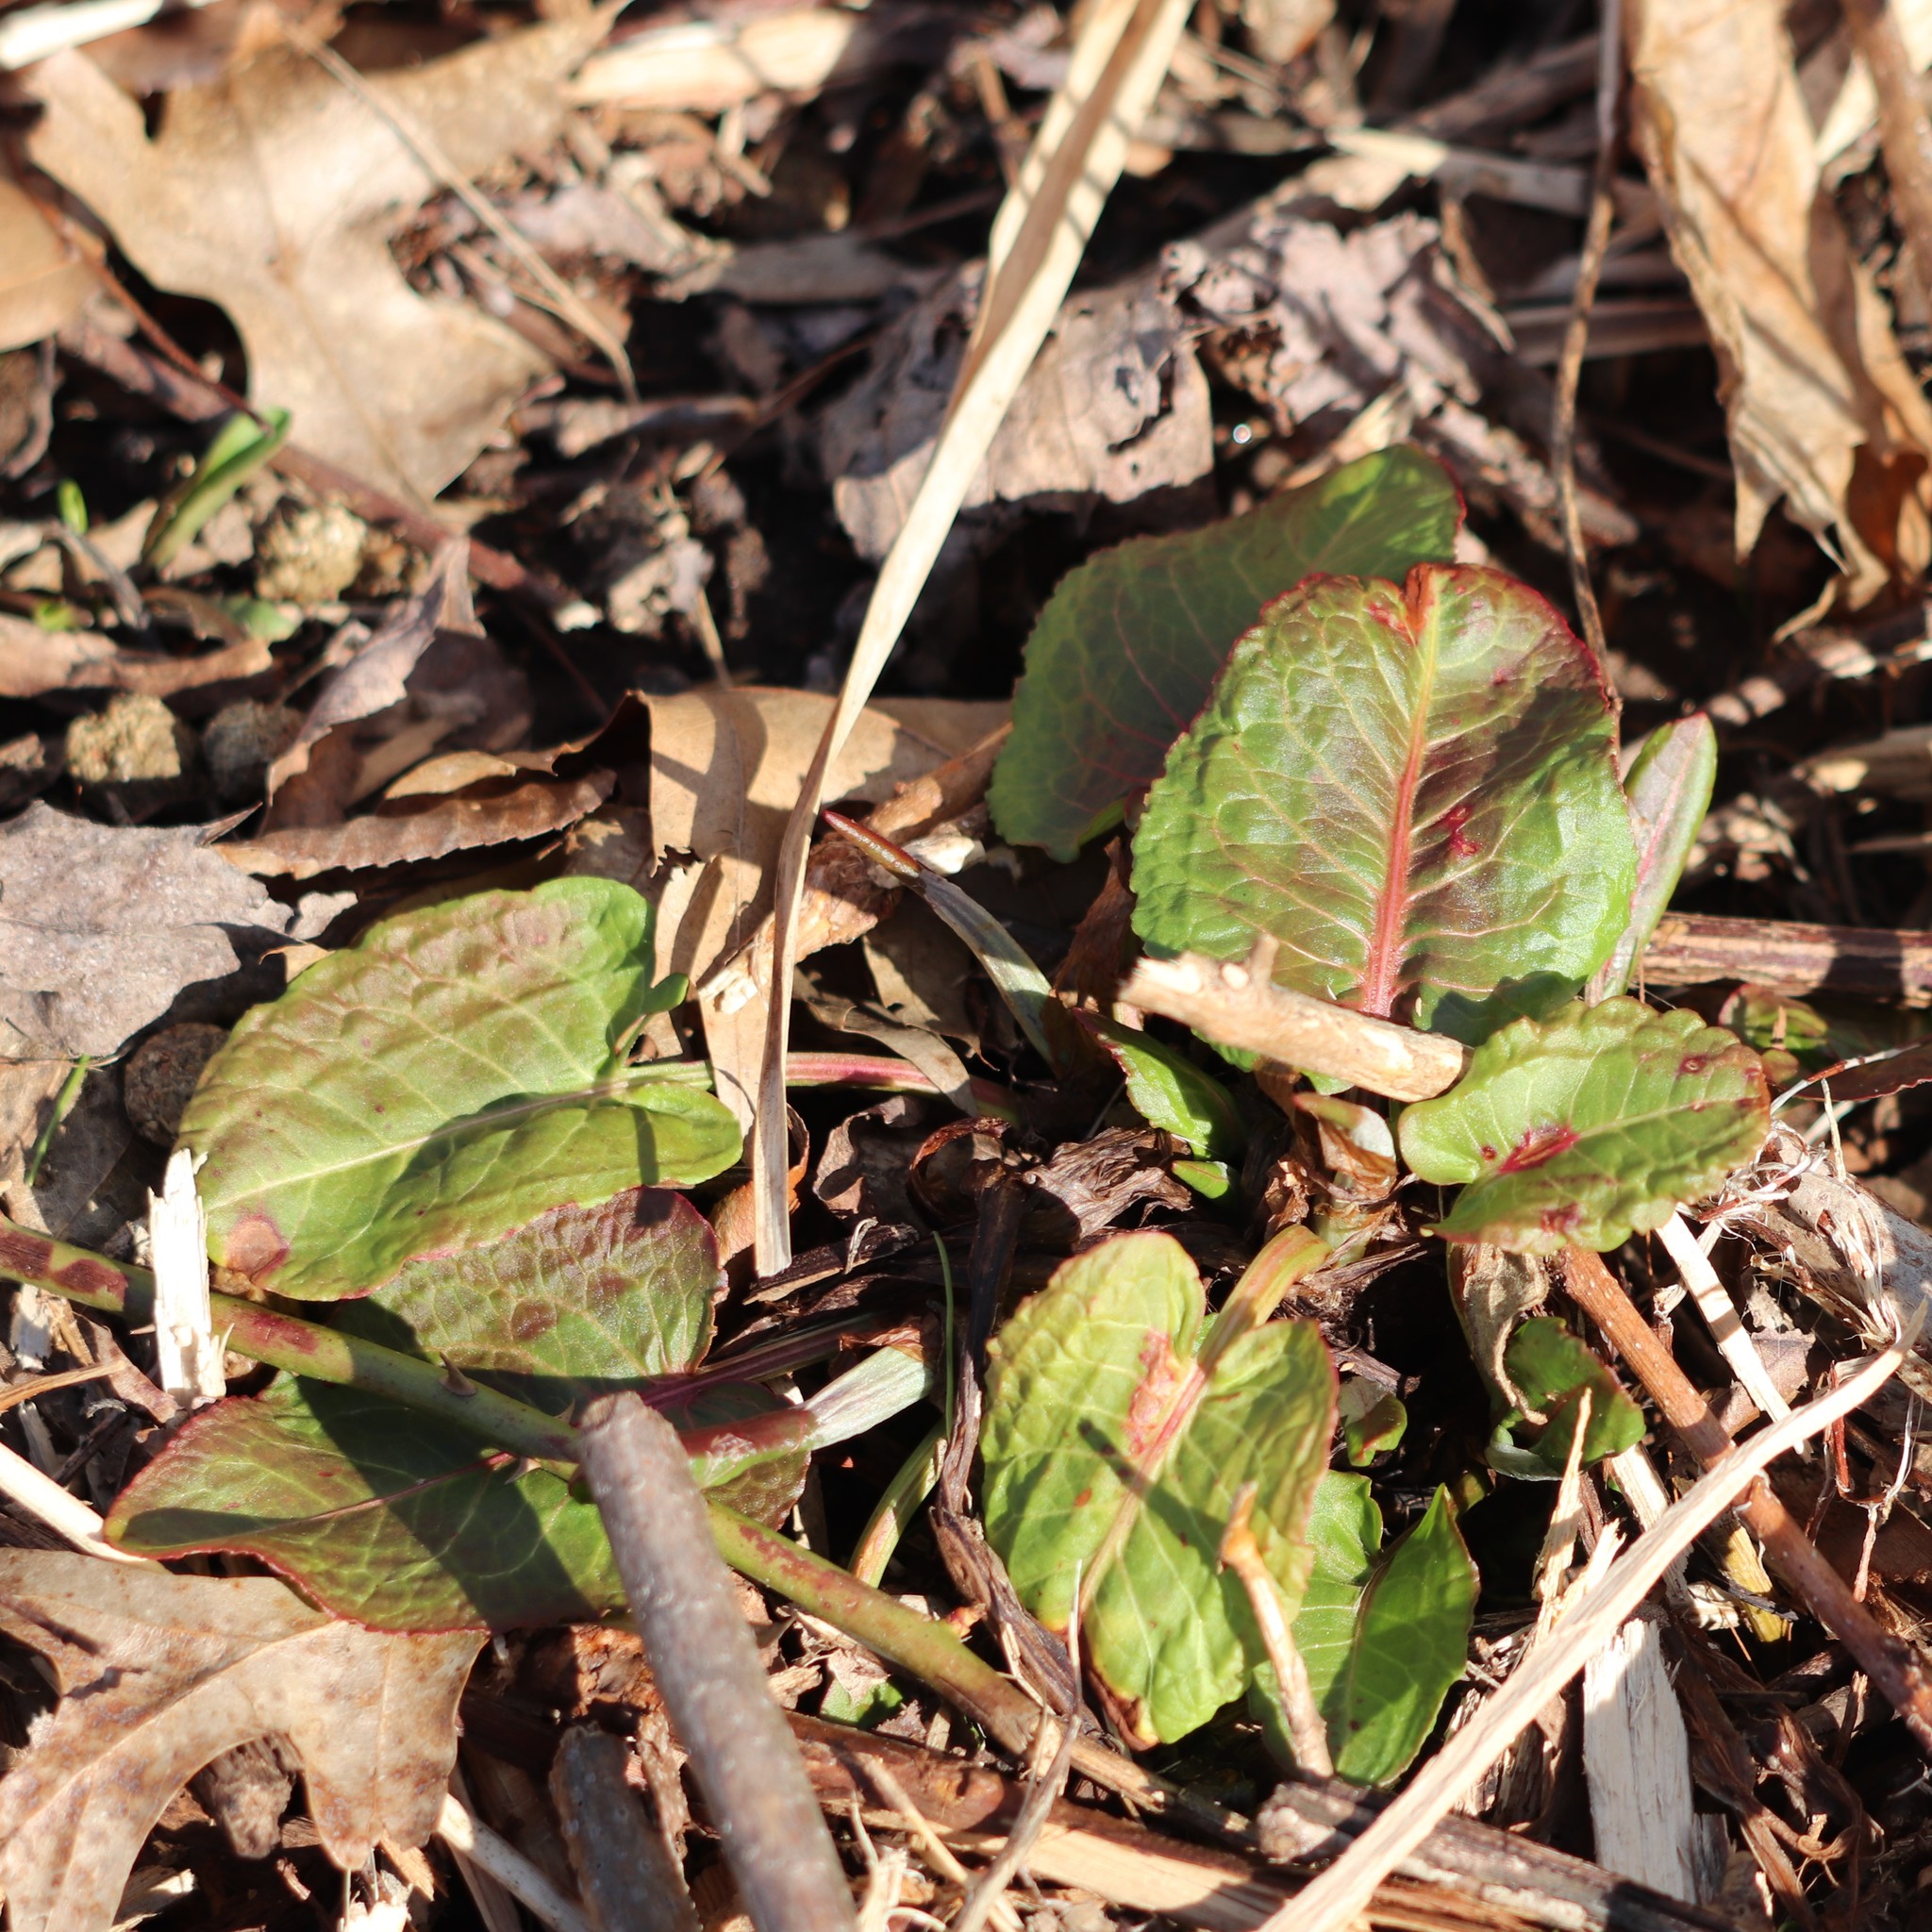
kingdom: Plantae
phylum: Tracheophyta
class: Magnoliopsida
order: Caryophyllales
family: Polygonaceae
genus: Rumex
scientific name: Rumex obtusifolius
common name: Bitter dock
